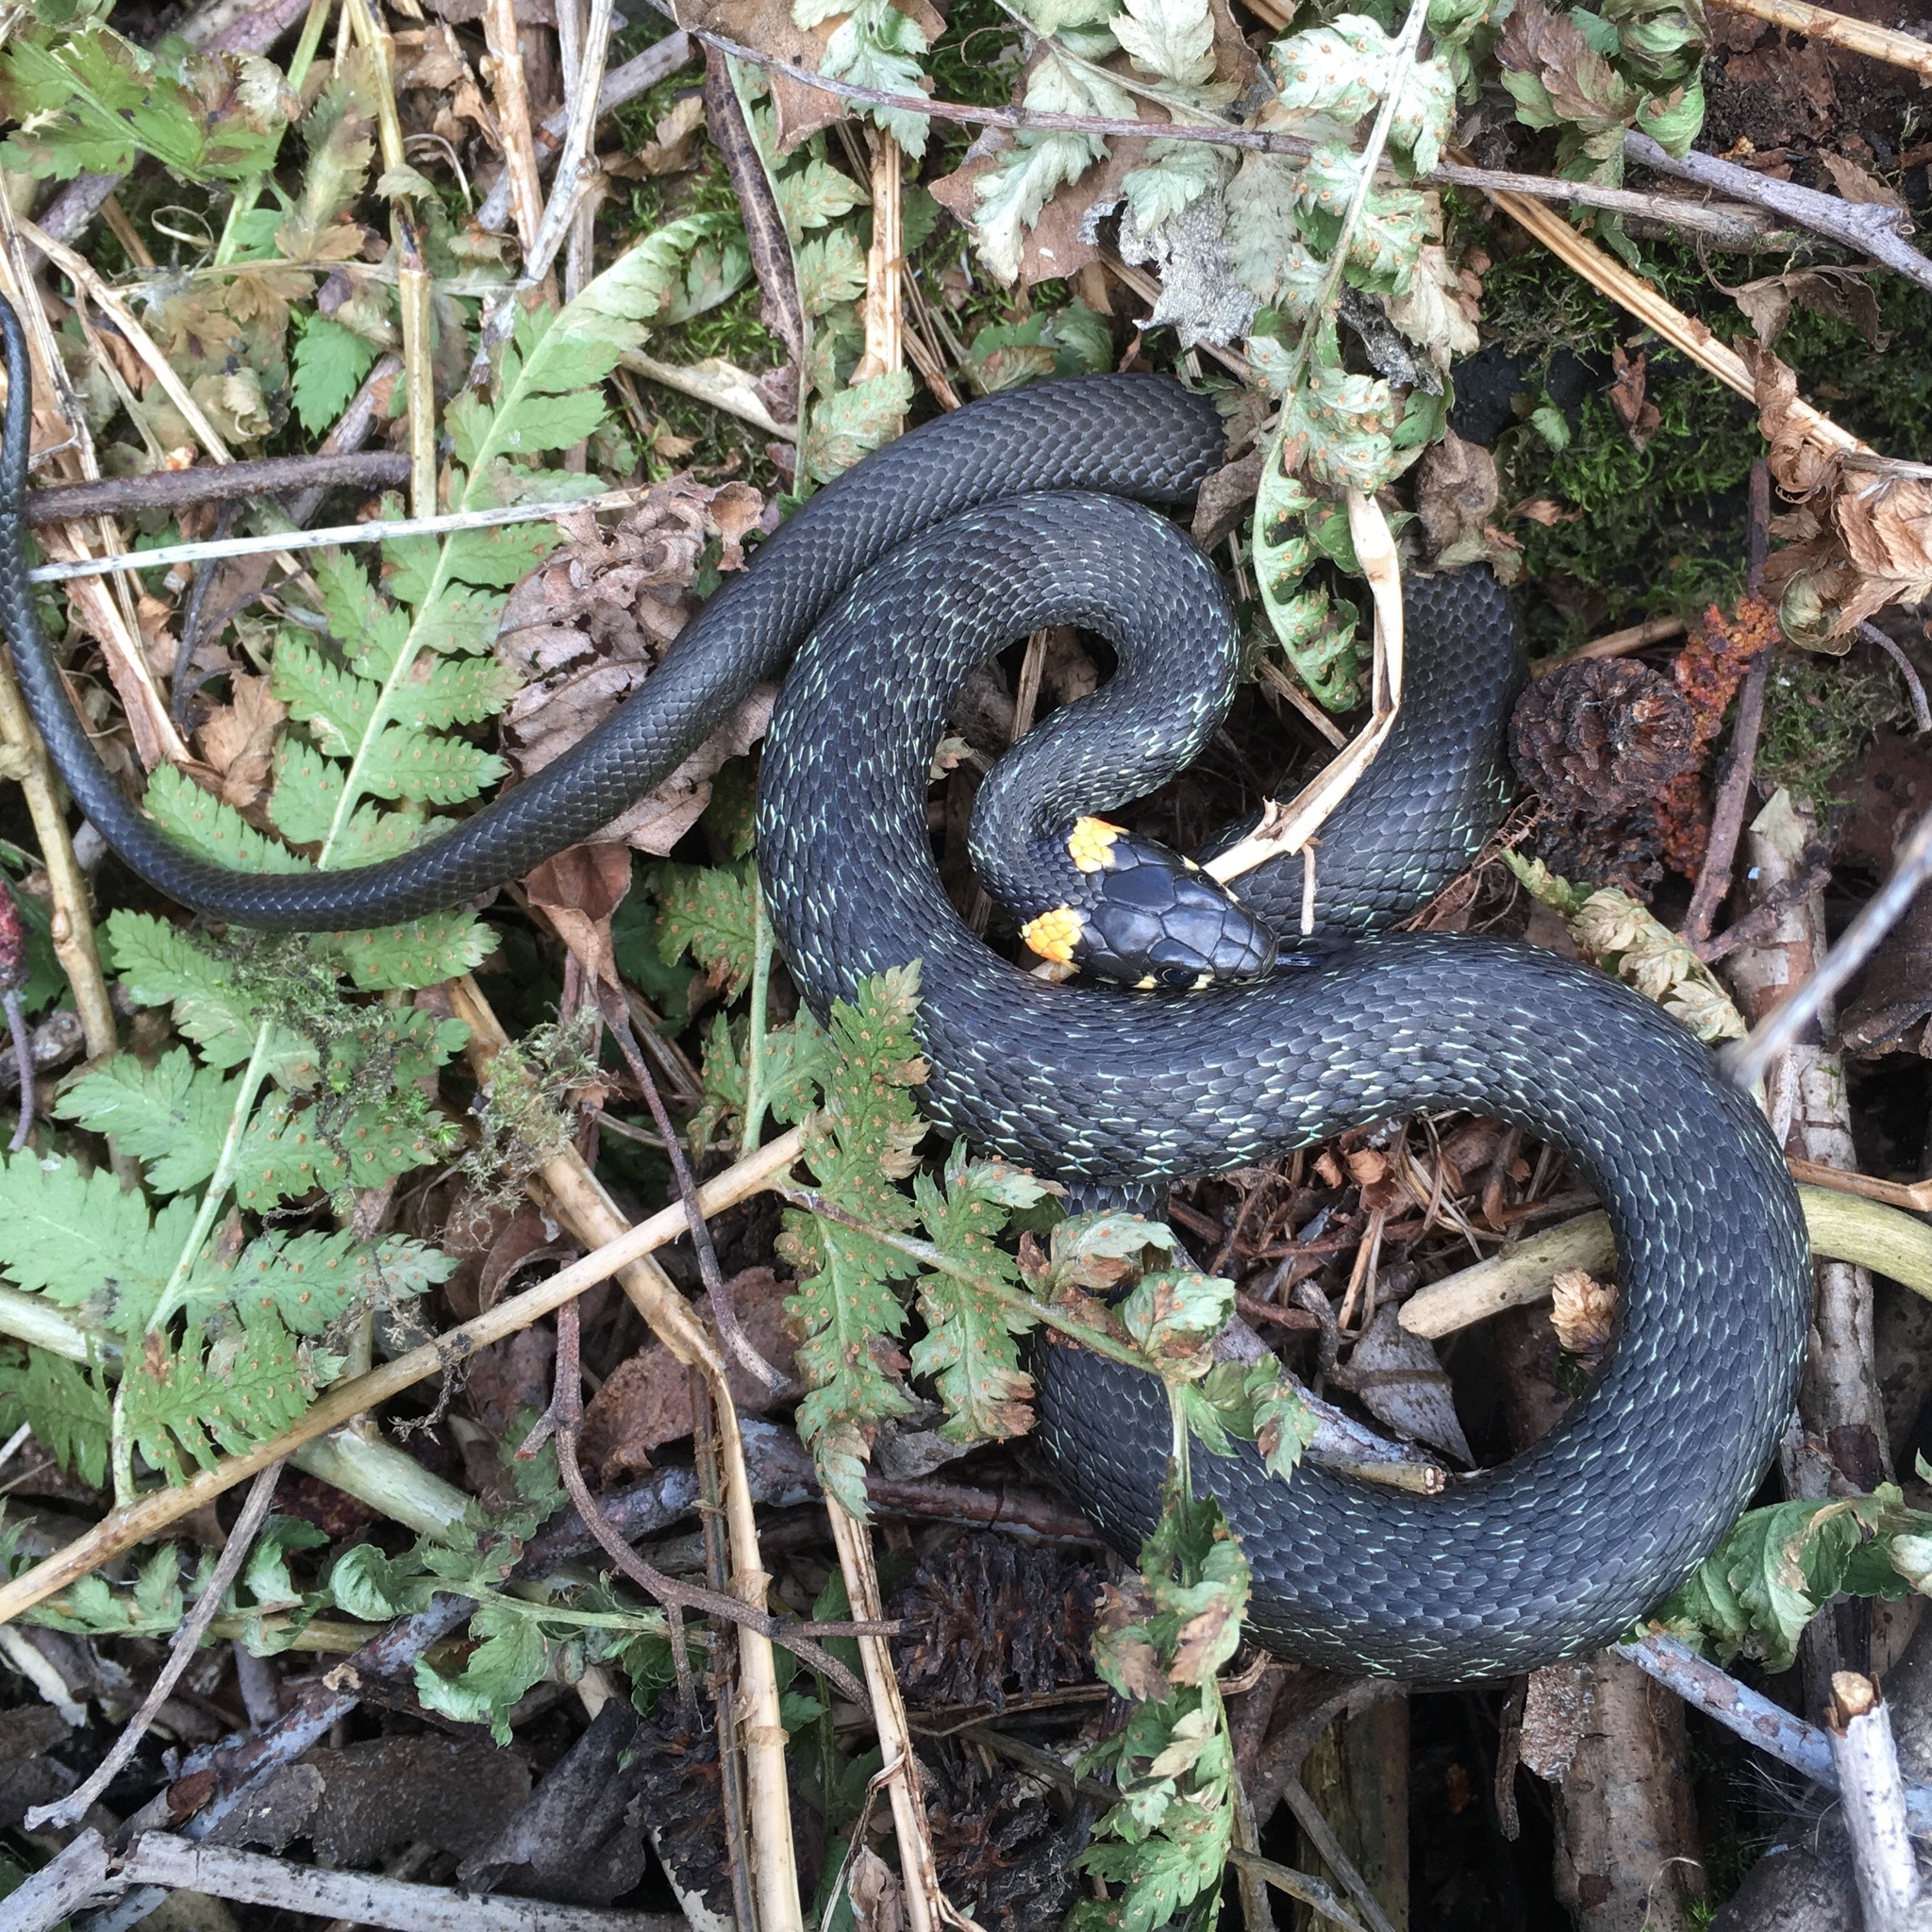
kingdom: Animalia
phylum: Chordata
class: Squamata
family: Colubridae
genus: Natrix
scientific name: Natrix natrix
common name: Grass snake
